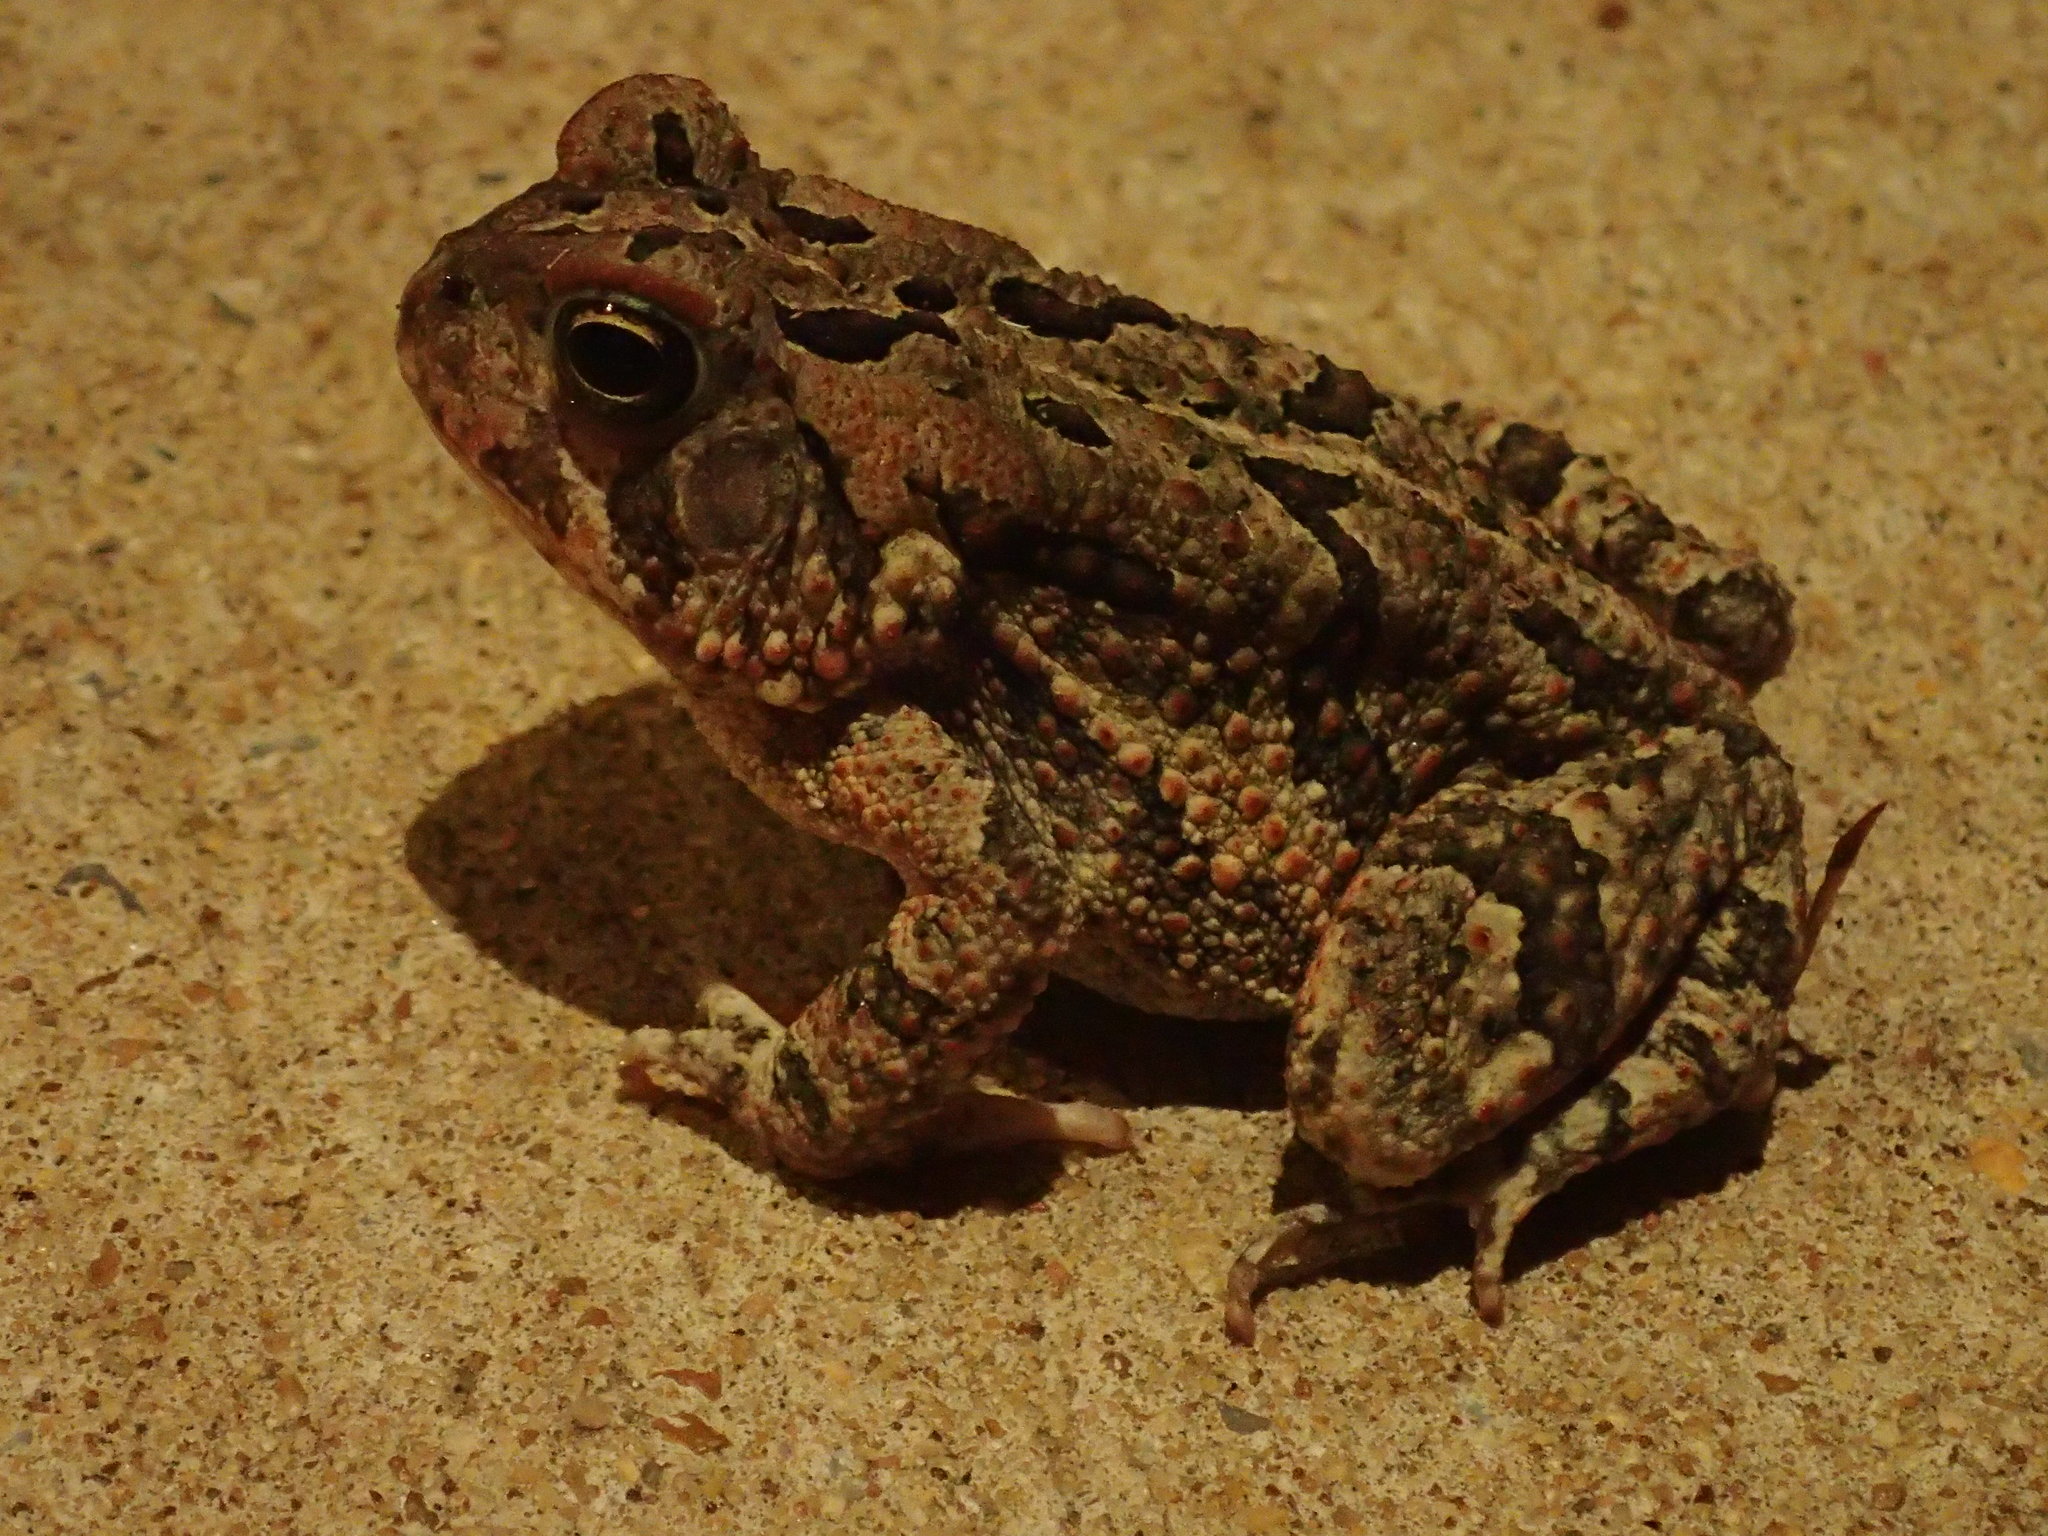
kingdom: Animalia
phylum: Chordata
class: Amphibia
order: Anura
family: Bufonidae
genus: Anaxyrus
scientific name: Anaxyrus fowleri
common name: Fowler's toad
